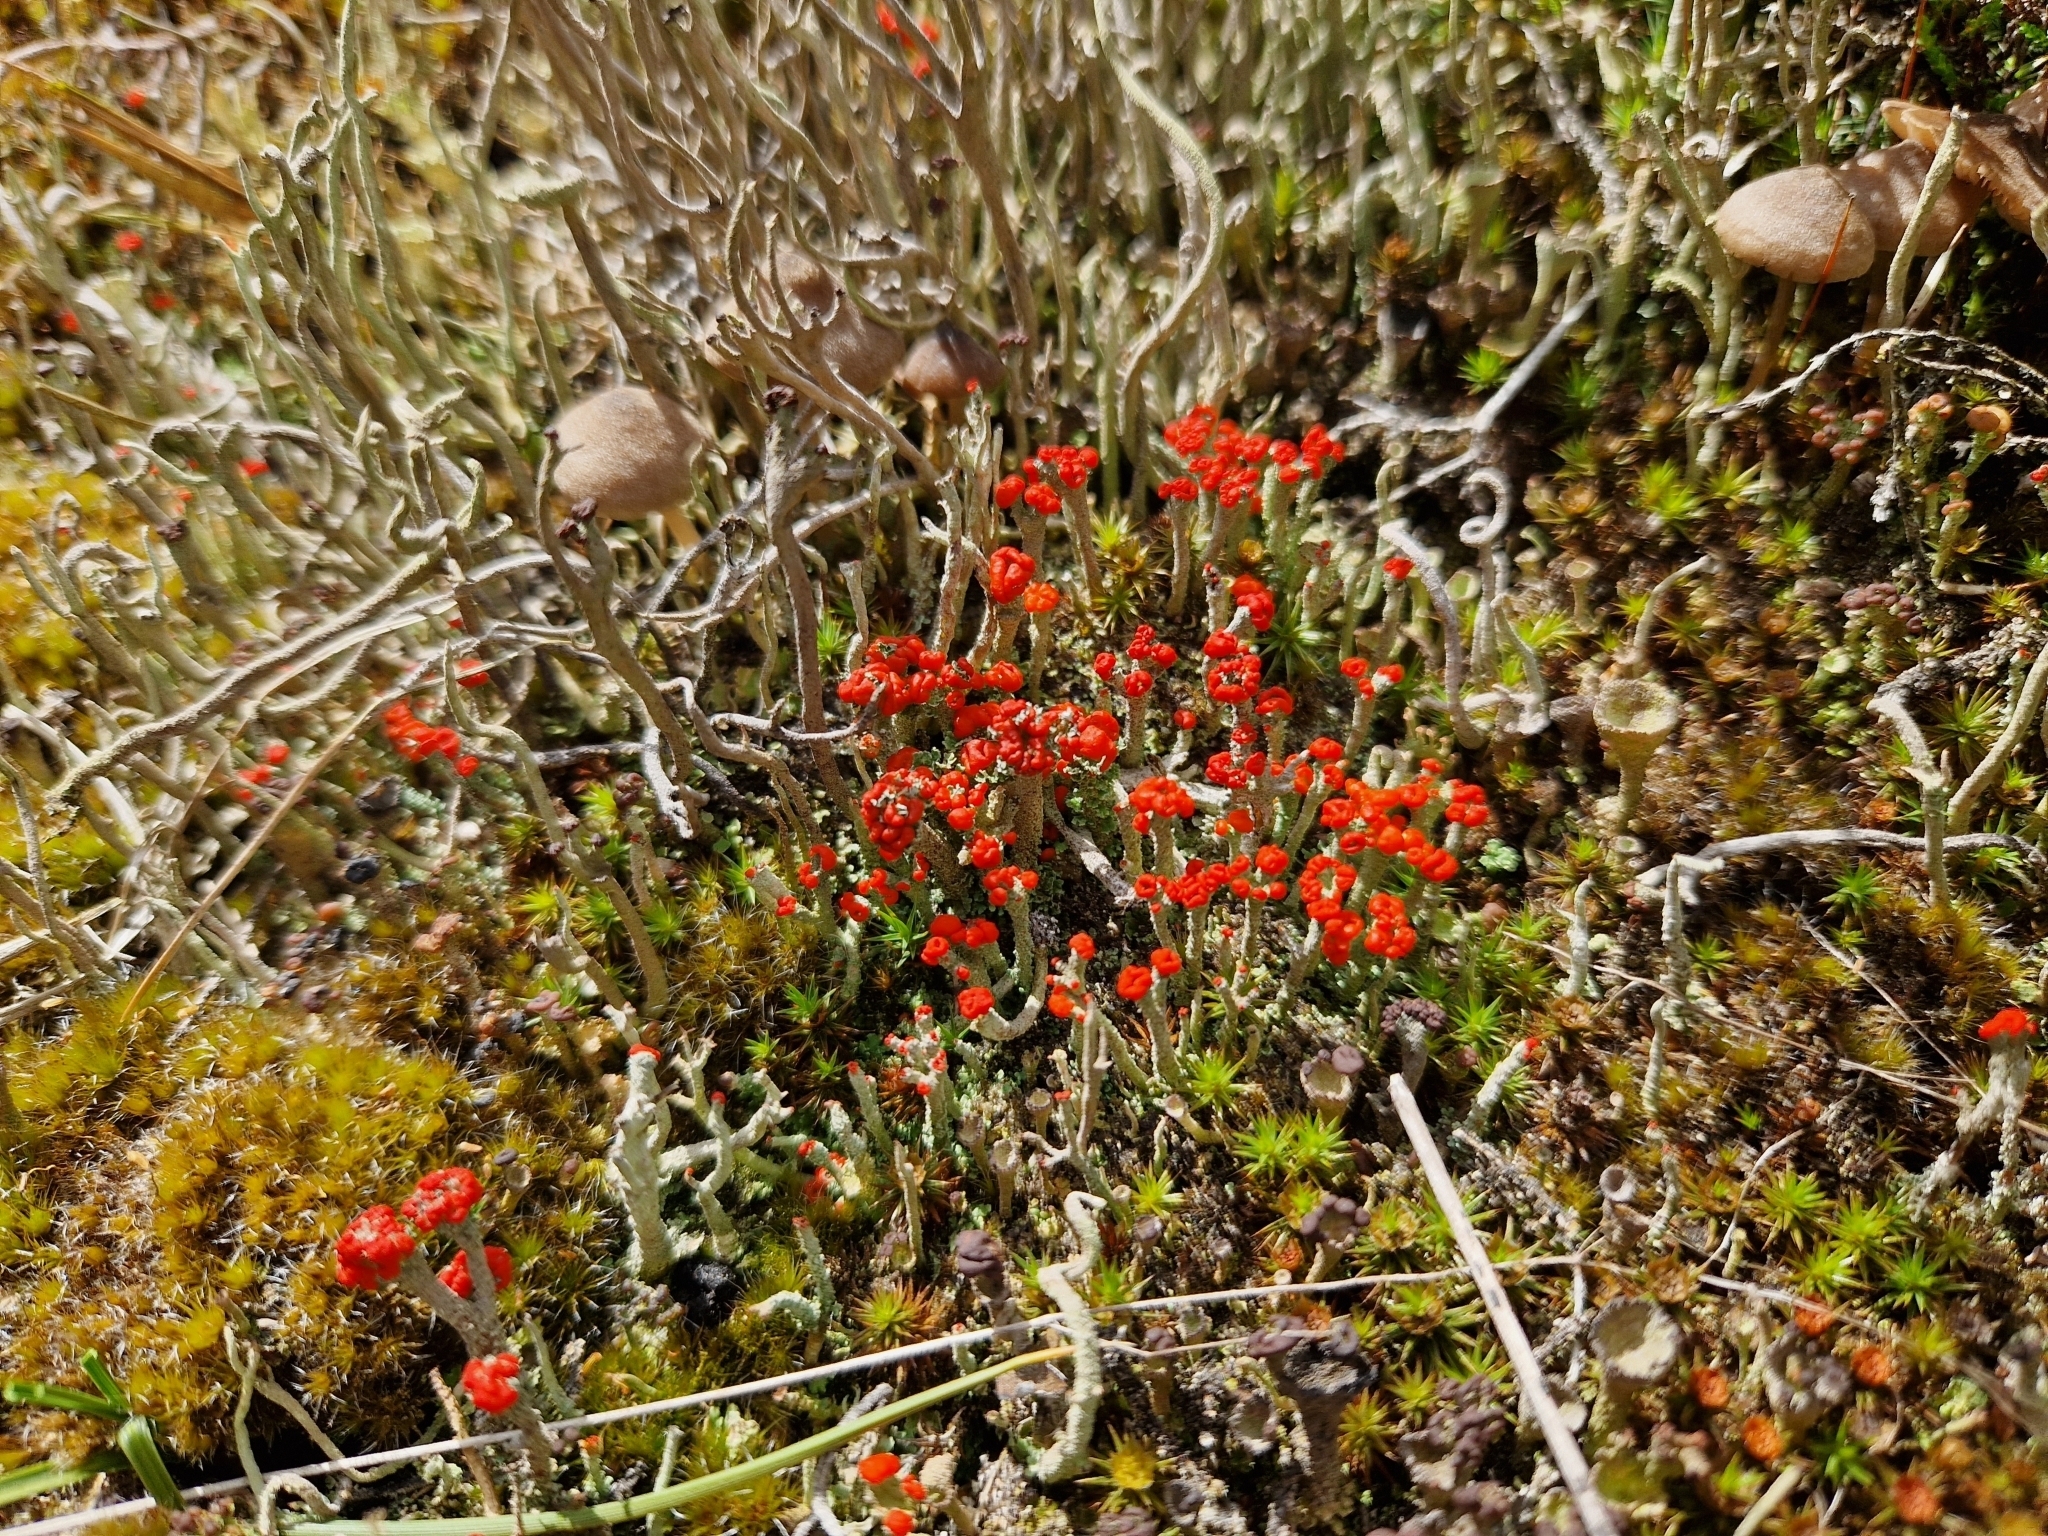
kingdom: Fungi
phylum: Ascomycota
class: Lecanoromycetes
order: Lecanorales
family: Cladoniaceae
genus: Cladonia
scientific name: Cladonia floerkeana
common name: Gritty british soldiers lichen
